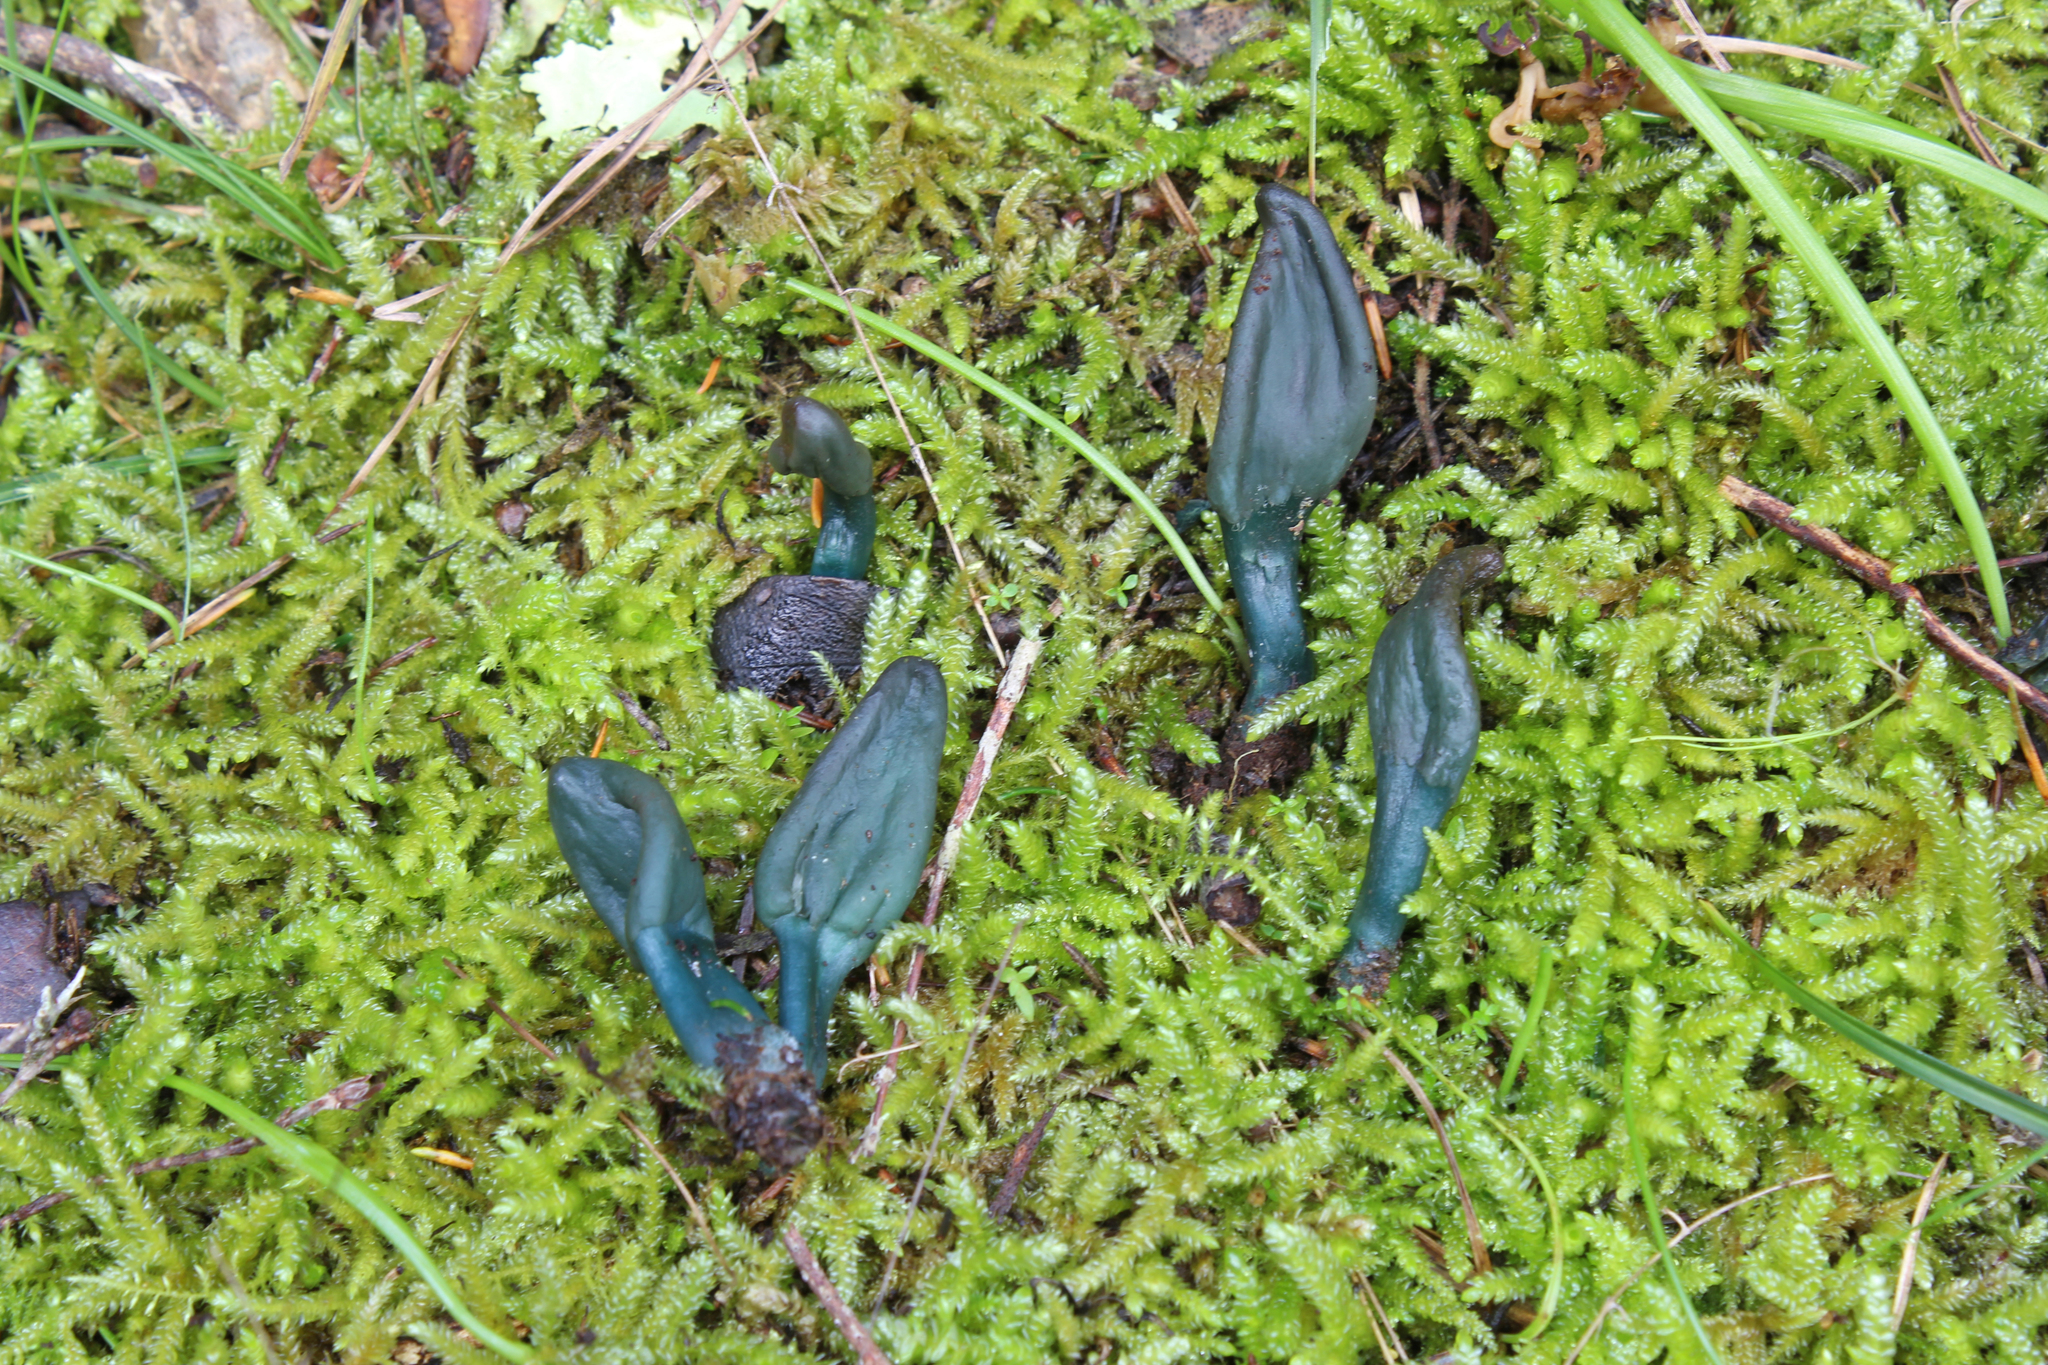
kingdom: Fungi
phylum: Ascomycota
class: Leotiomycetes
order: Leotiales
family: Leotiaceae
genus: Microglossum
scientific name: Microglossum tenebrosum
